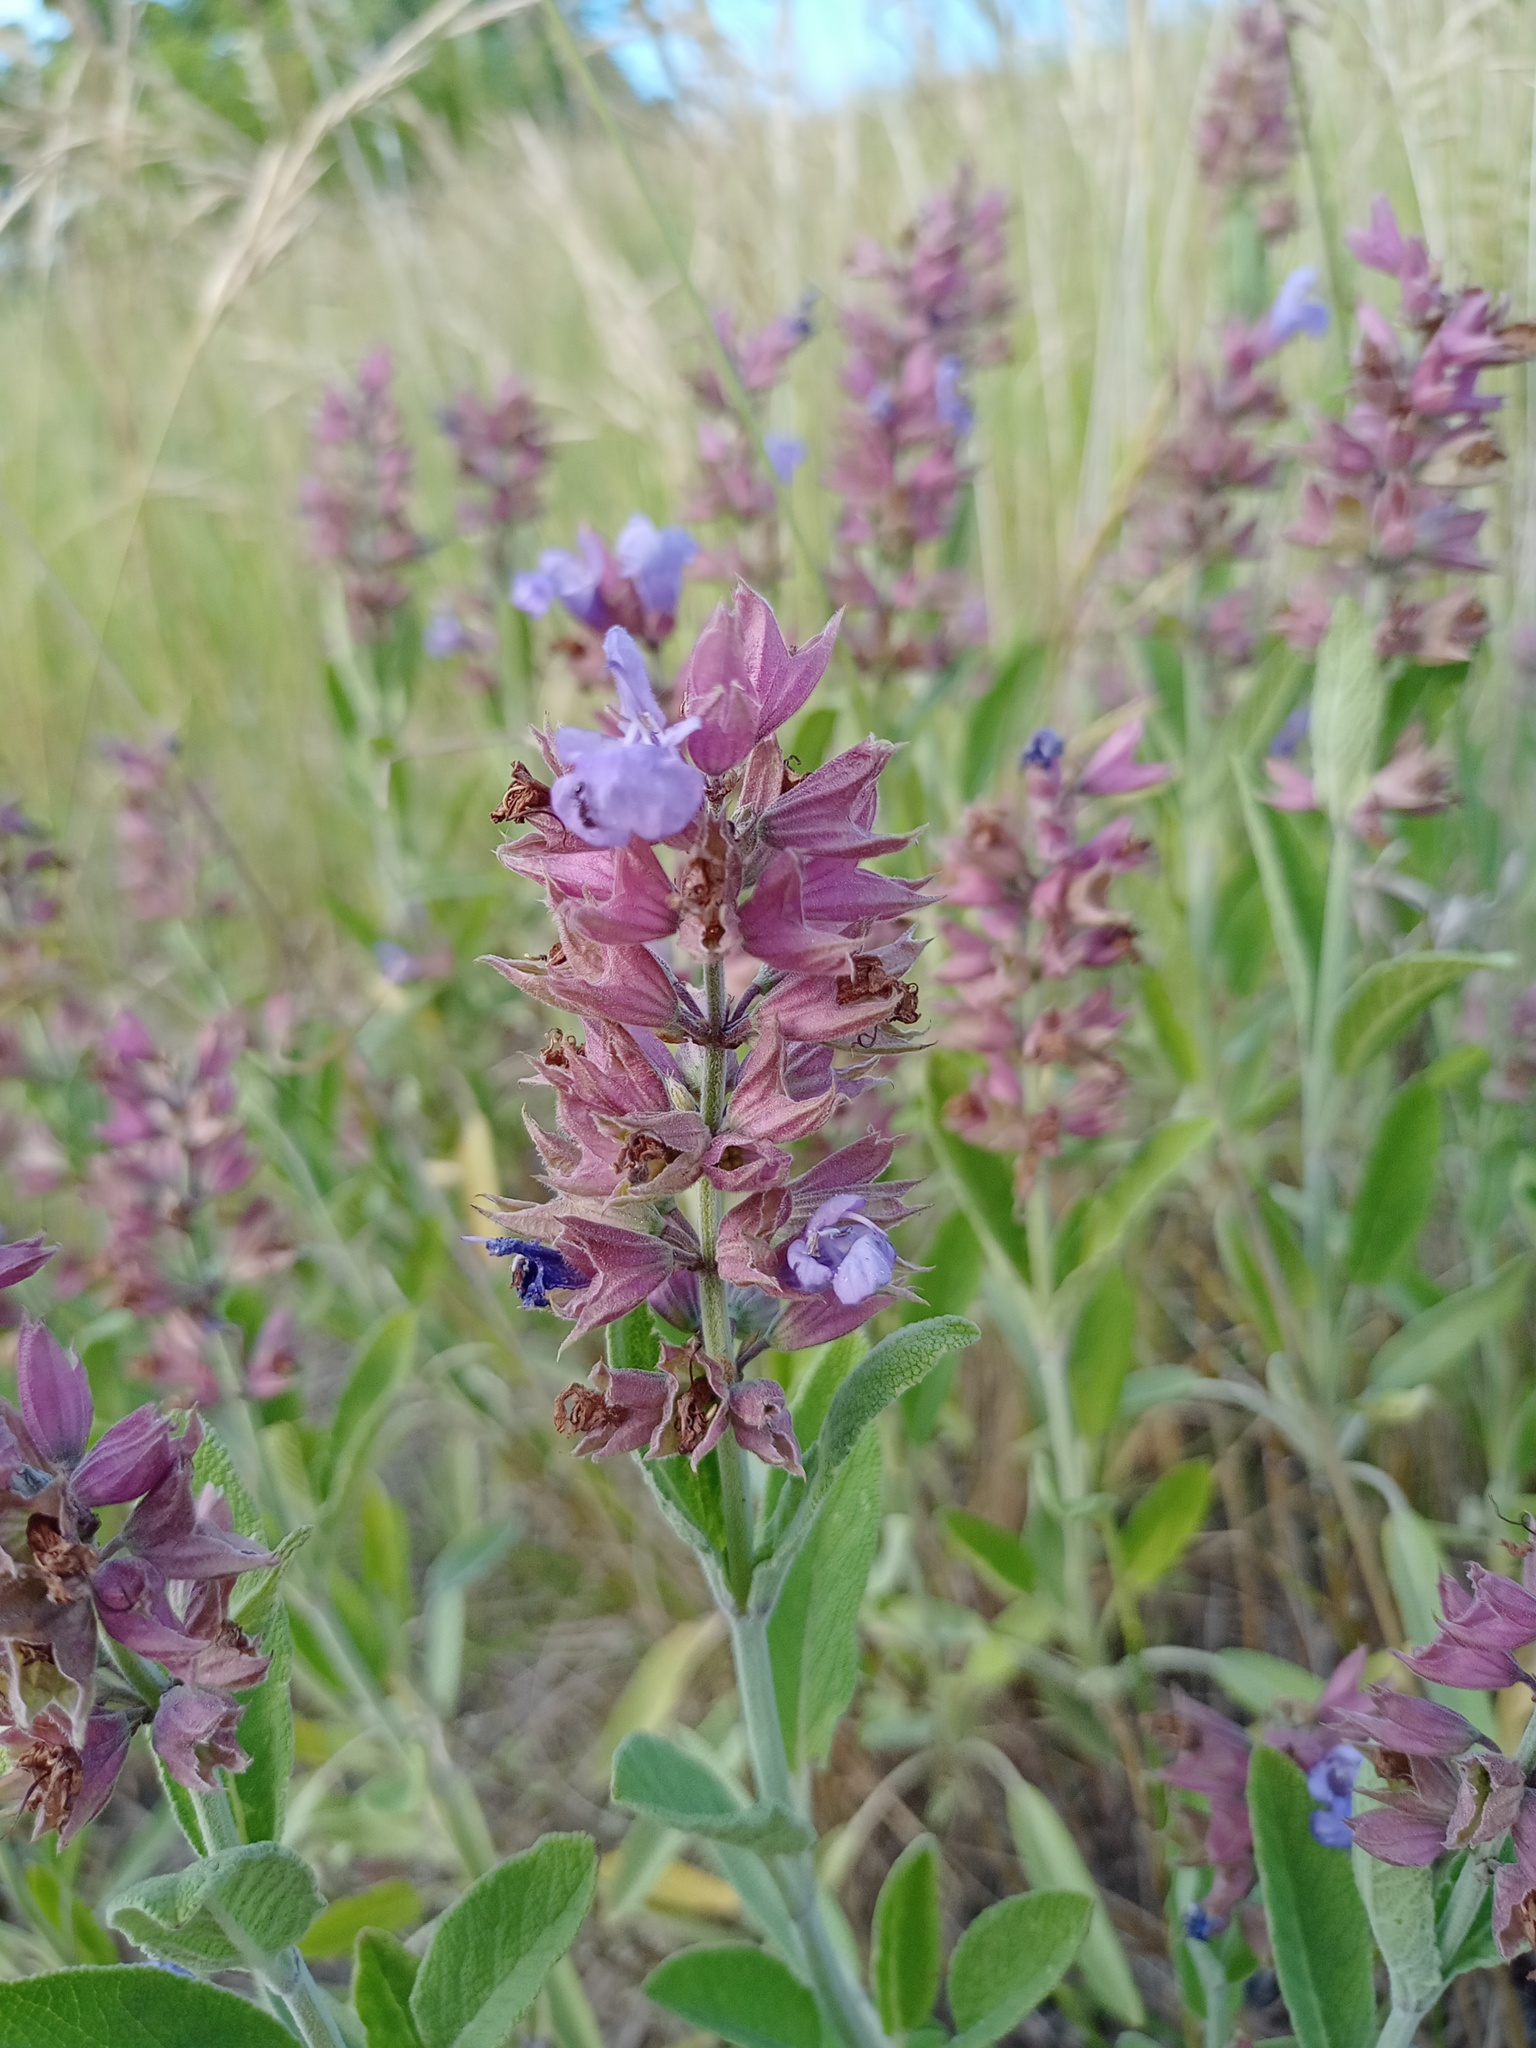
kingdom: Plantae
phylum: Tracheophyta
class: Magnoliopsida
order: Lamiales
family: Lamiaceae
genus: Salvia
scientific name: Salvia officinalis
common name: Sage
